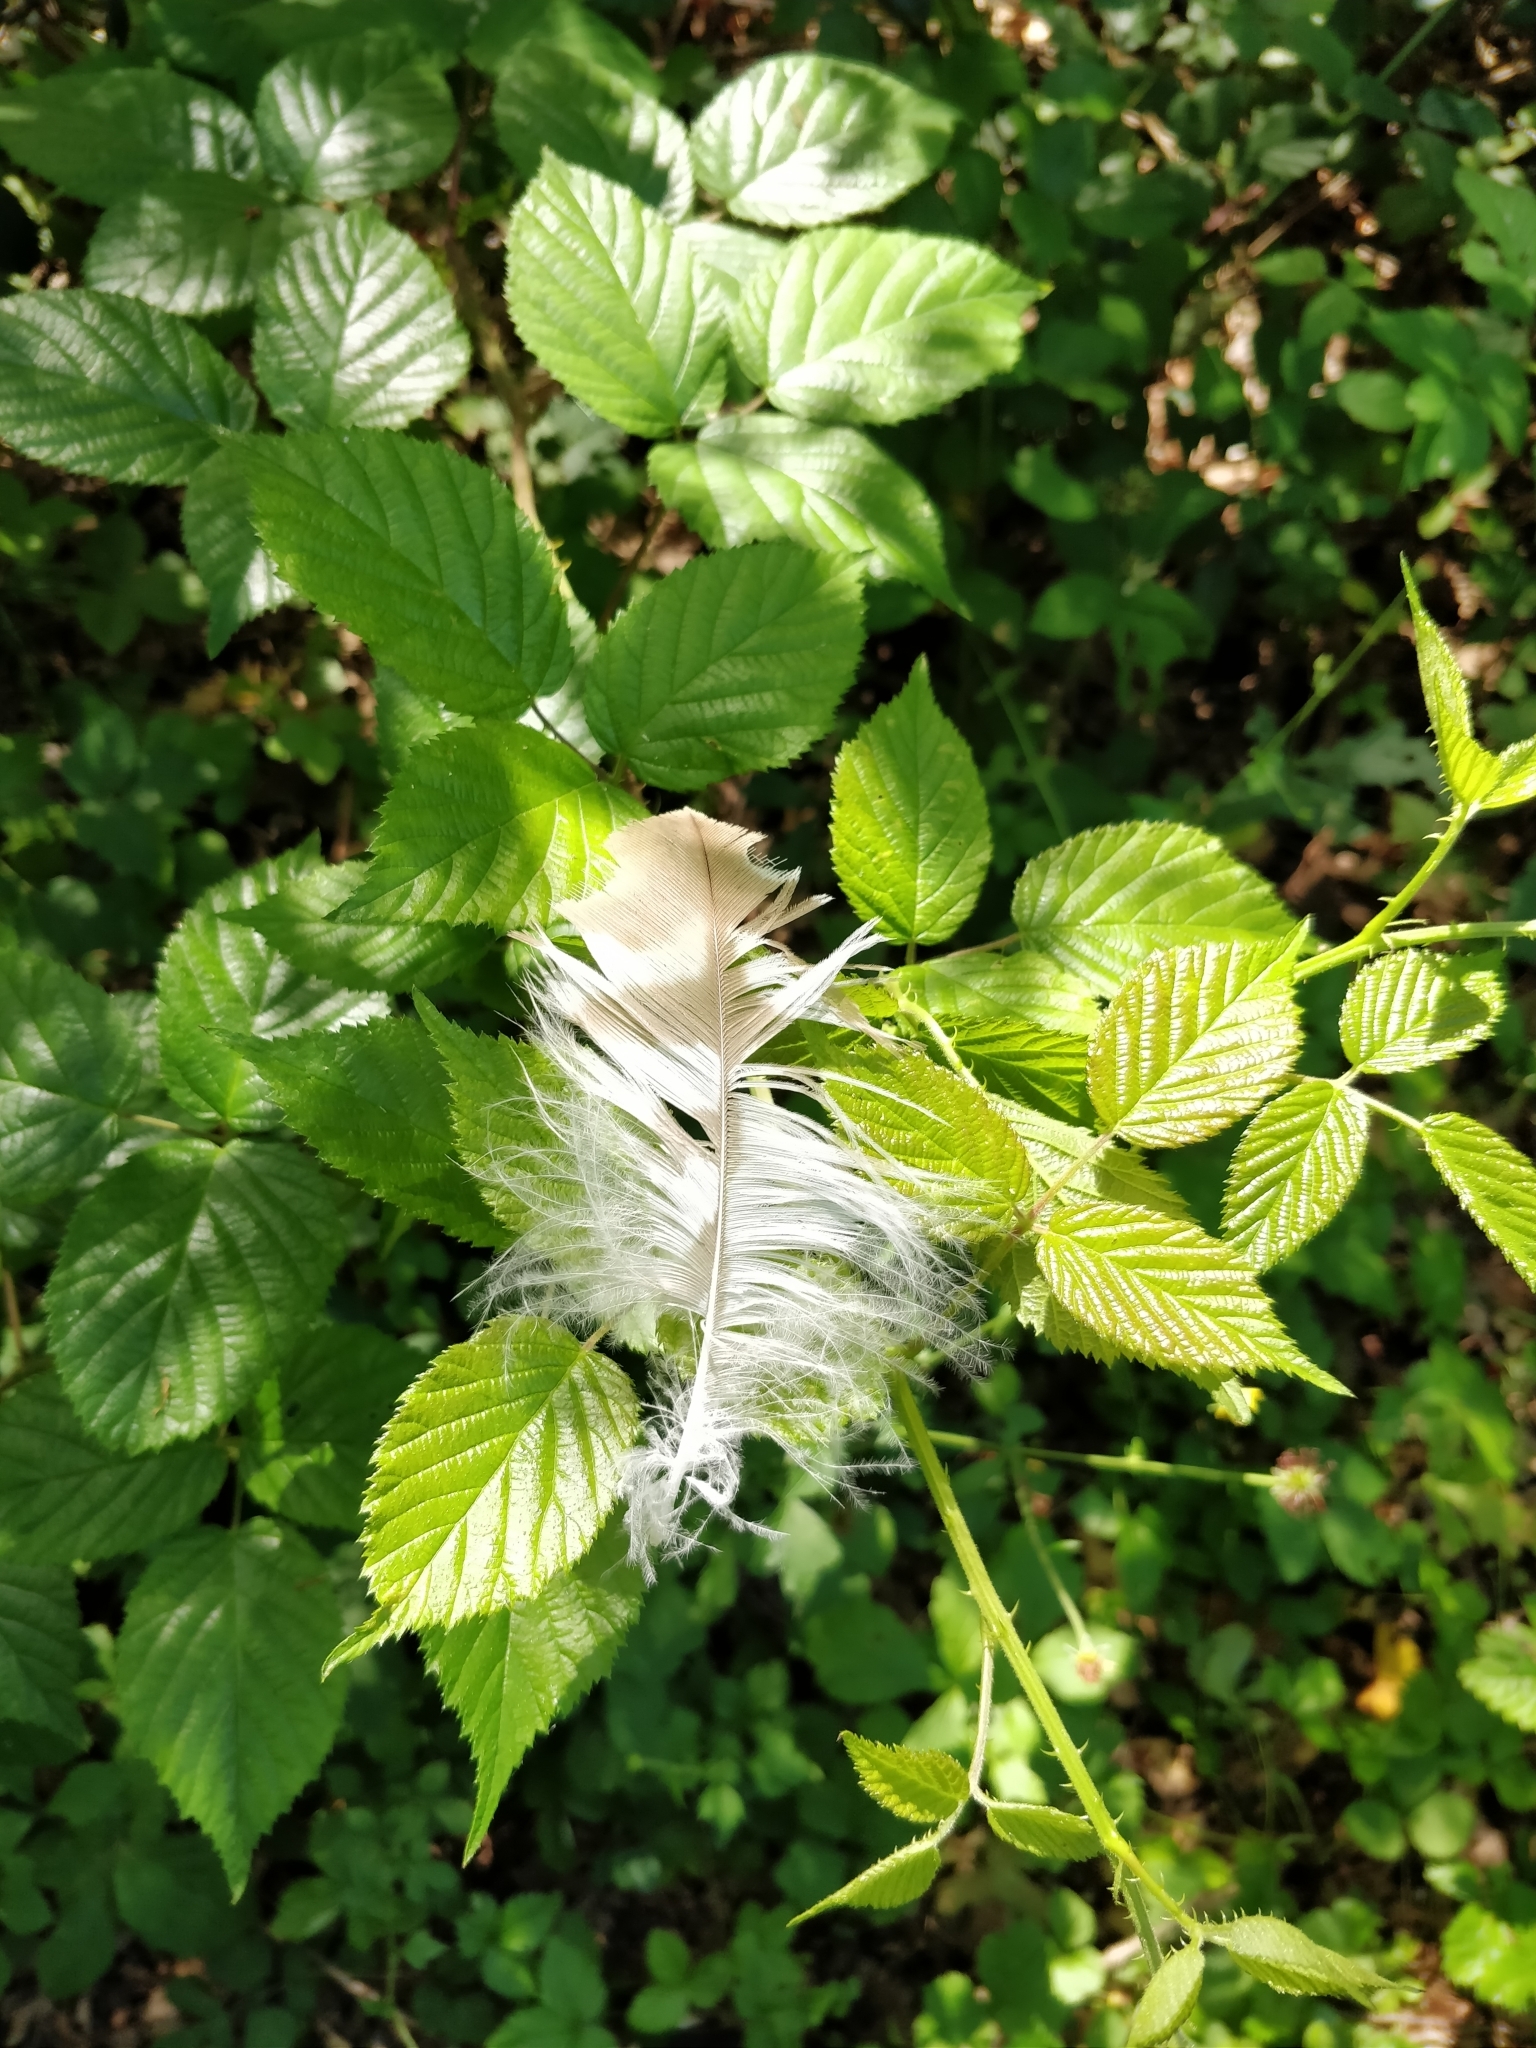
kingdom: Animalia
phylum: Chordata
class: Aves
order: Accipitriformes
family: Accipitridae
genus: Buteo
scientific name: Buteo buteo
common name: Common buzzard
